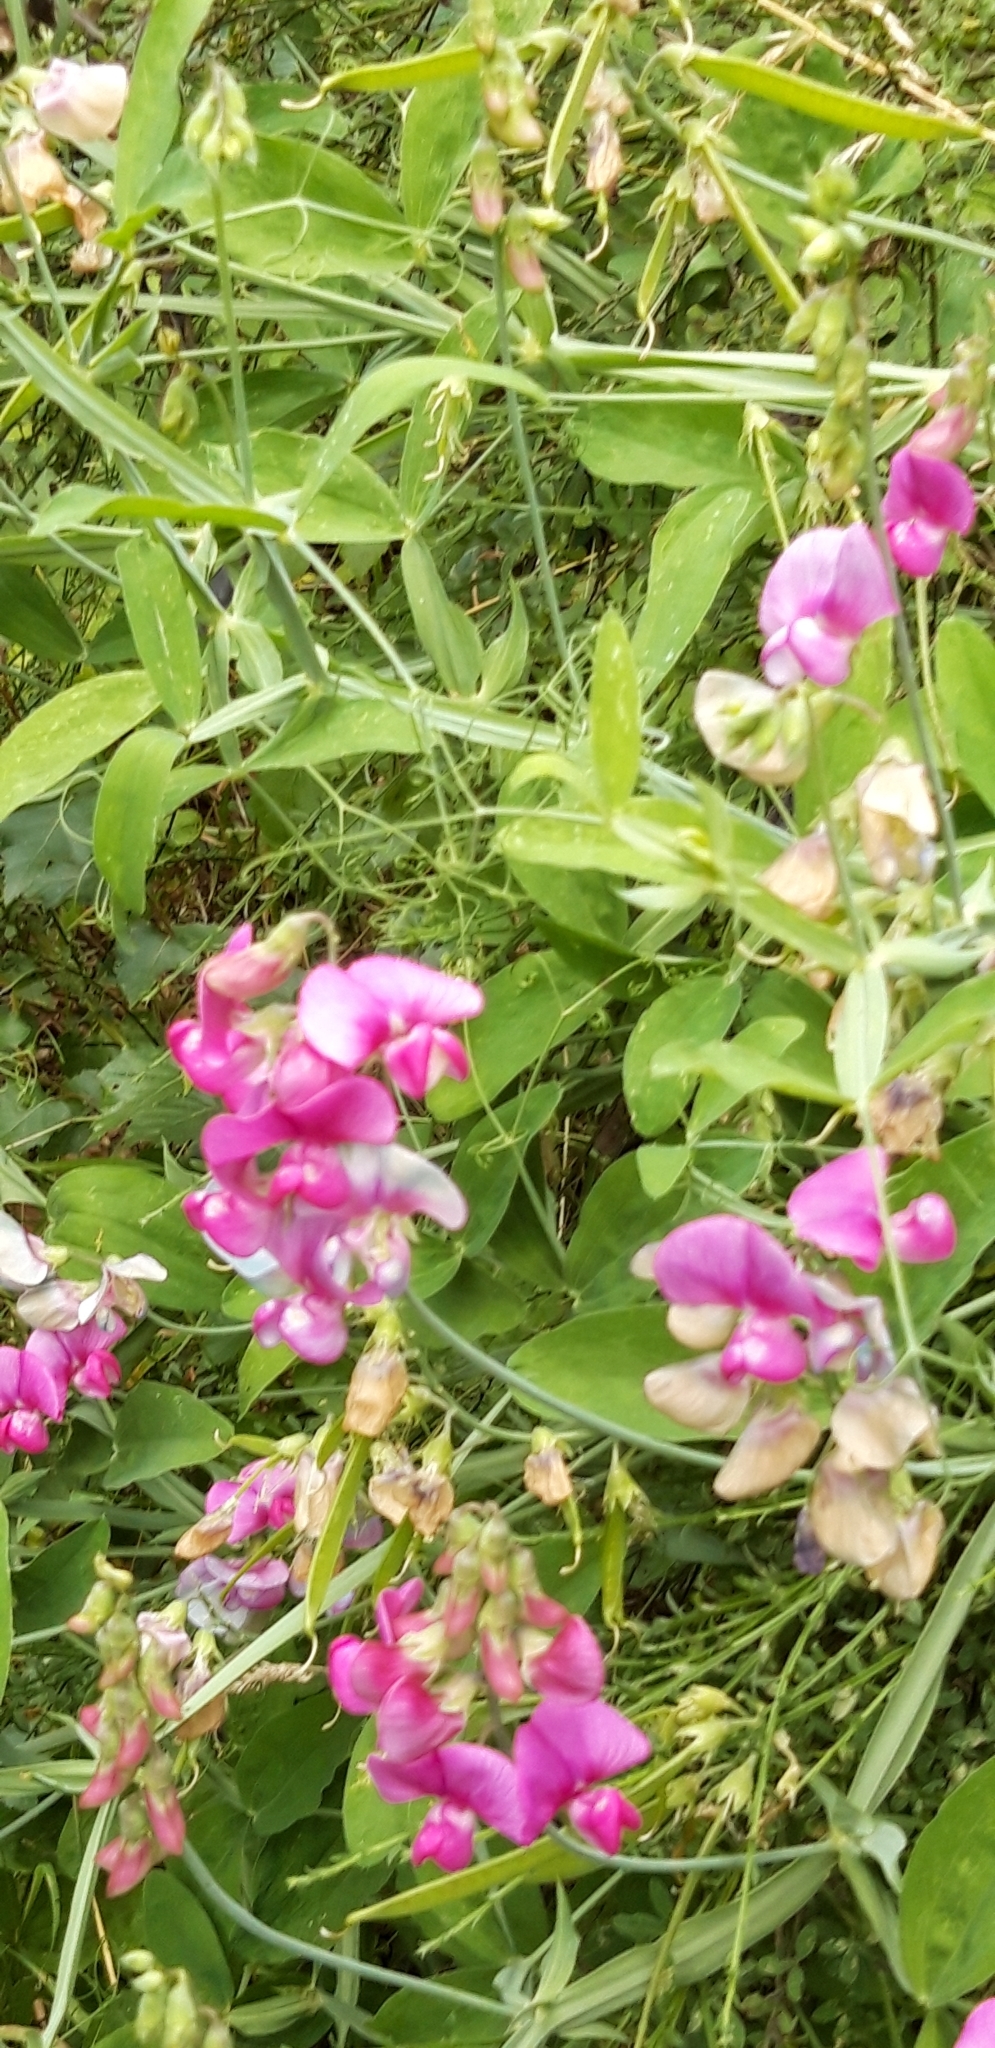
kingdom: Plantae
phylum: Tracheophyta
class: Magnoliopsida
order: Fabales
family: Fabaceae
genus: Lathyrus
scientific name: Lathyrus latifolius
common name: Perennial pea
